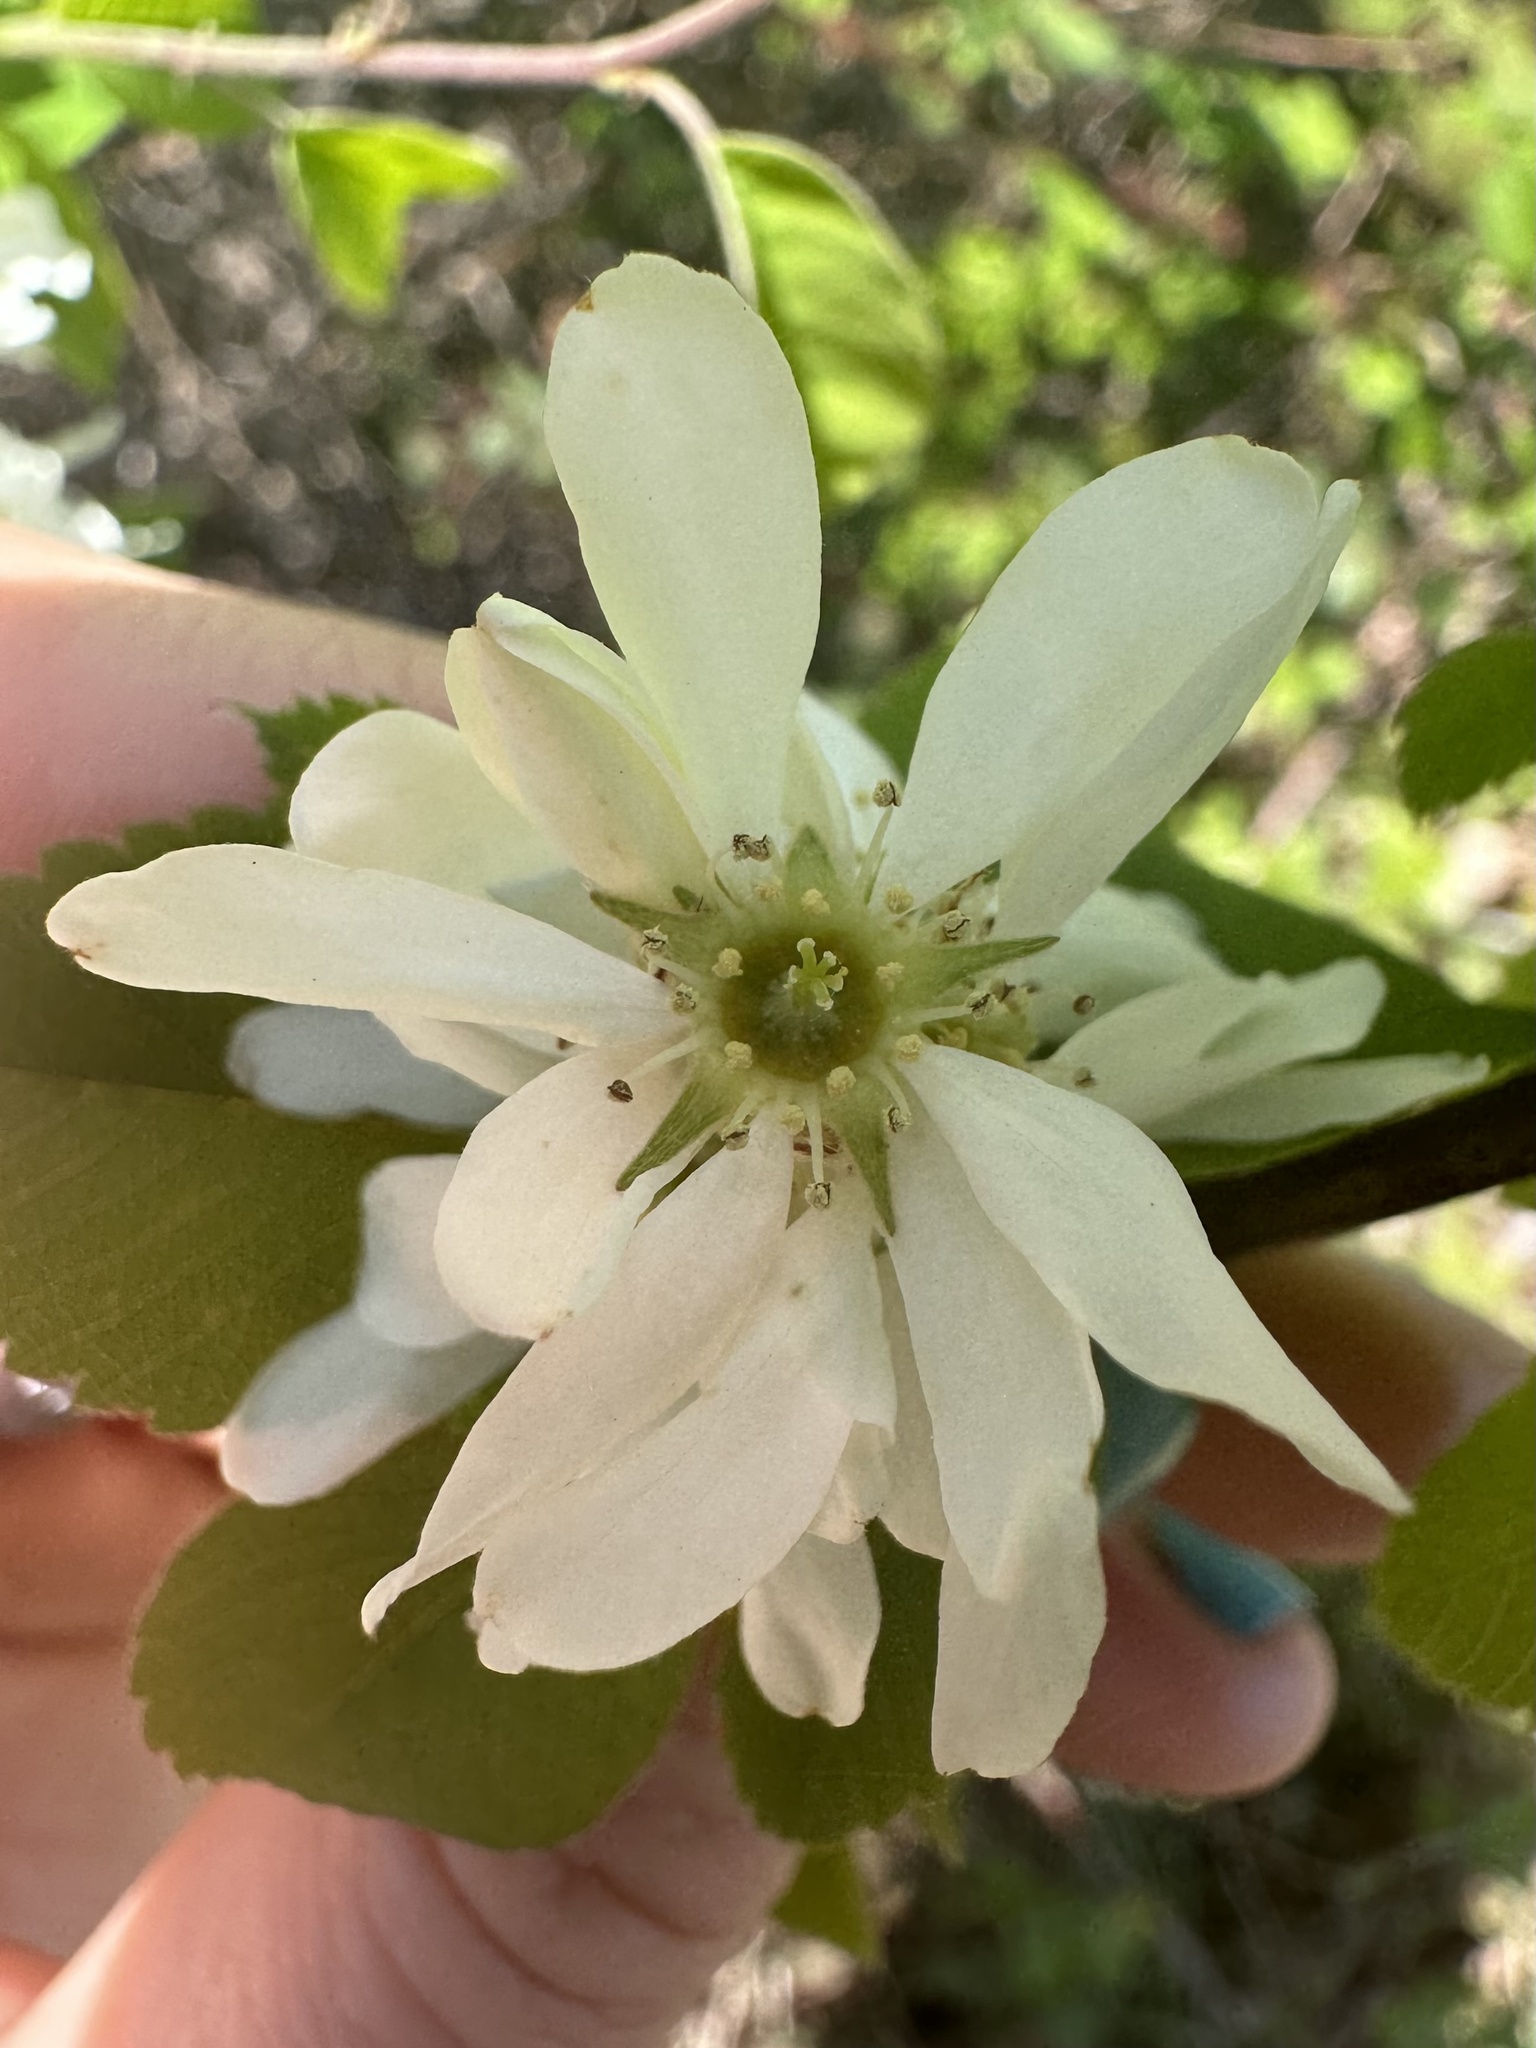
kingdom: Plantae
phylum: Tracheophyta
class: Magnoliopsida
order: Rosales
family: Rosaceae
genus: Amelanchier
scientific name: Amelanchier alnifolia
